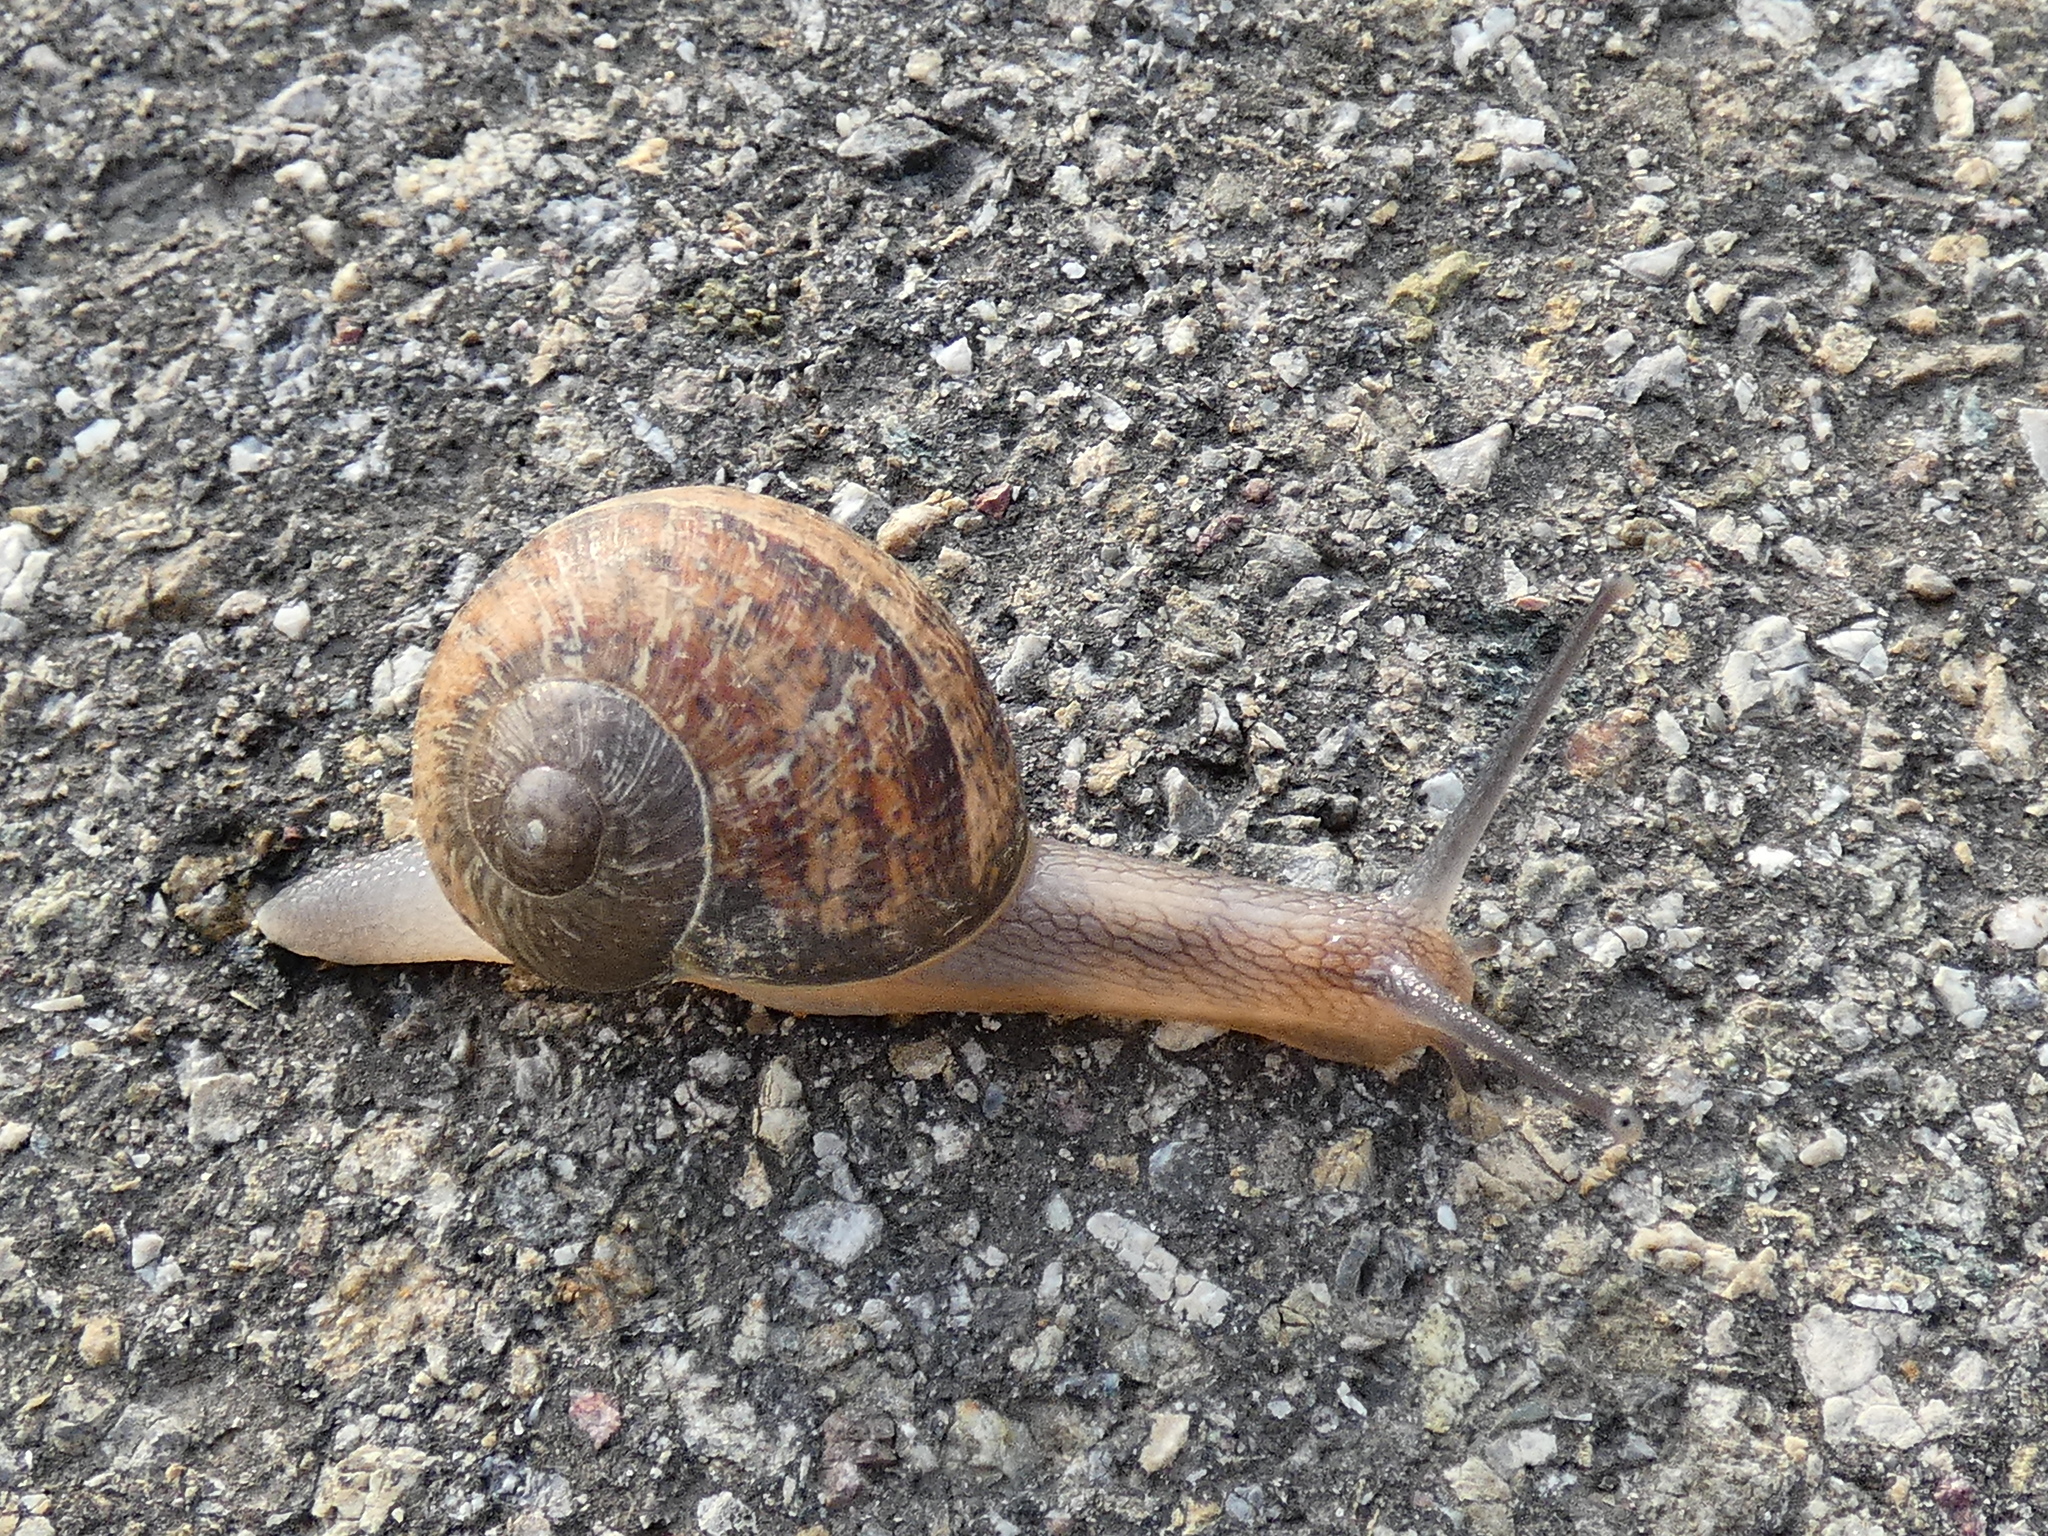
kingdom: Animalia
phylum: Mollusca
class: Gastropoda
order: Stylommatophora
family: Helicidae
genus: Cornu
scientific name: Cornu aspersum
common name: Brown garden snail
